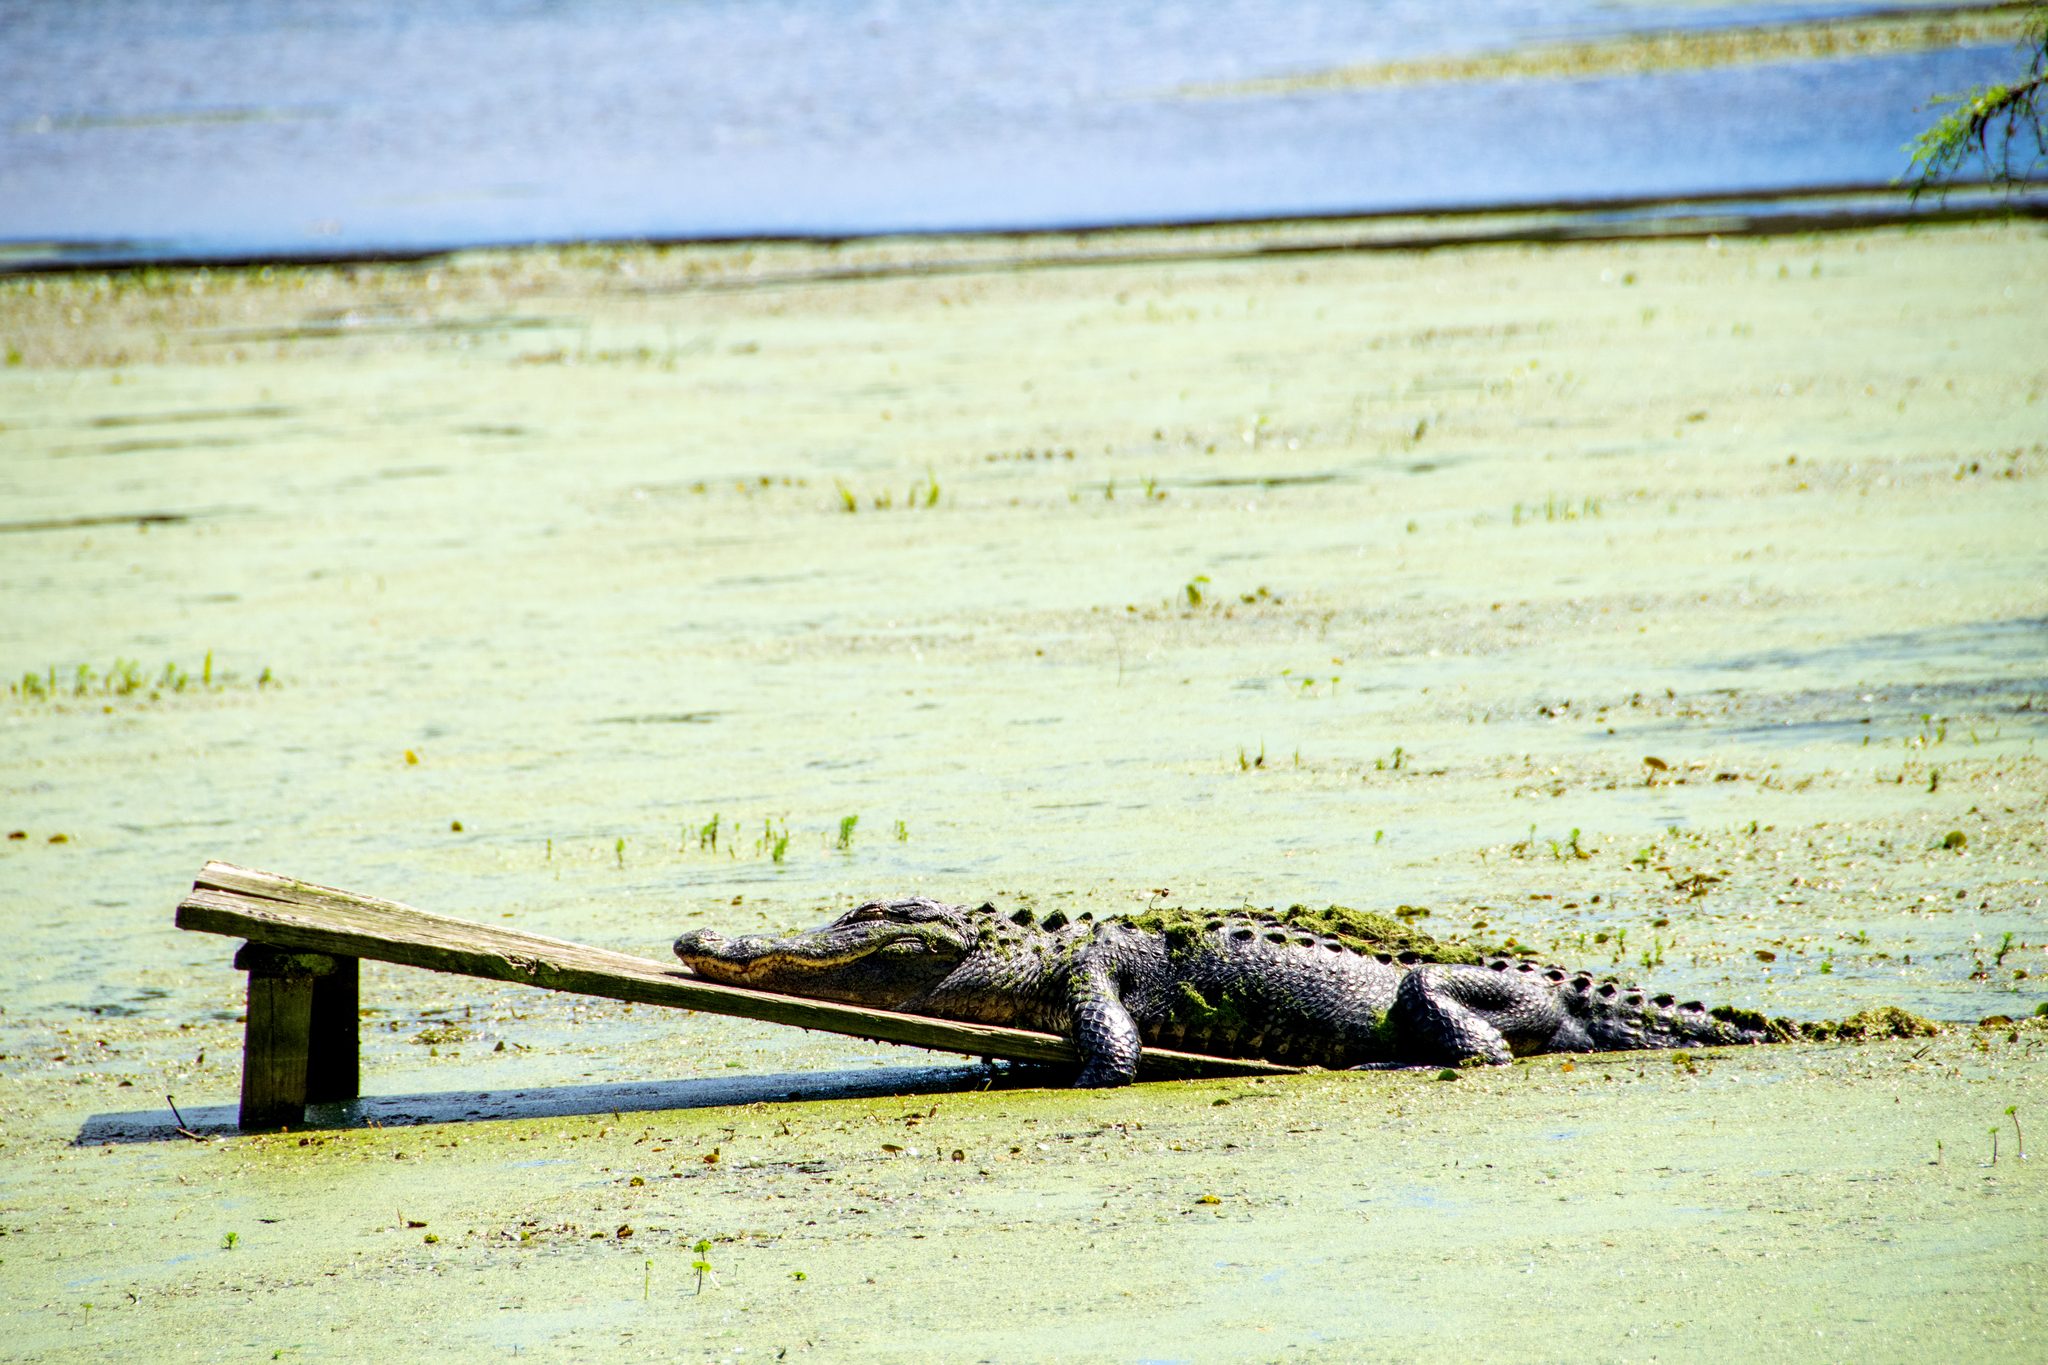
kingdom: Animalia
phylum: Chordata
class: Crocodylia
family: Alligatoridae
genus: Alligator
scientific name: Alligator mississippiensis
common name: American alligator
